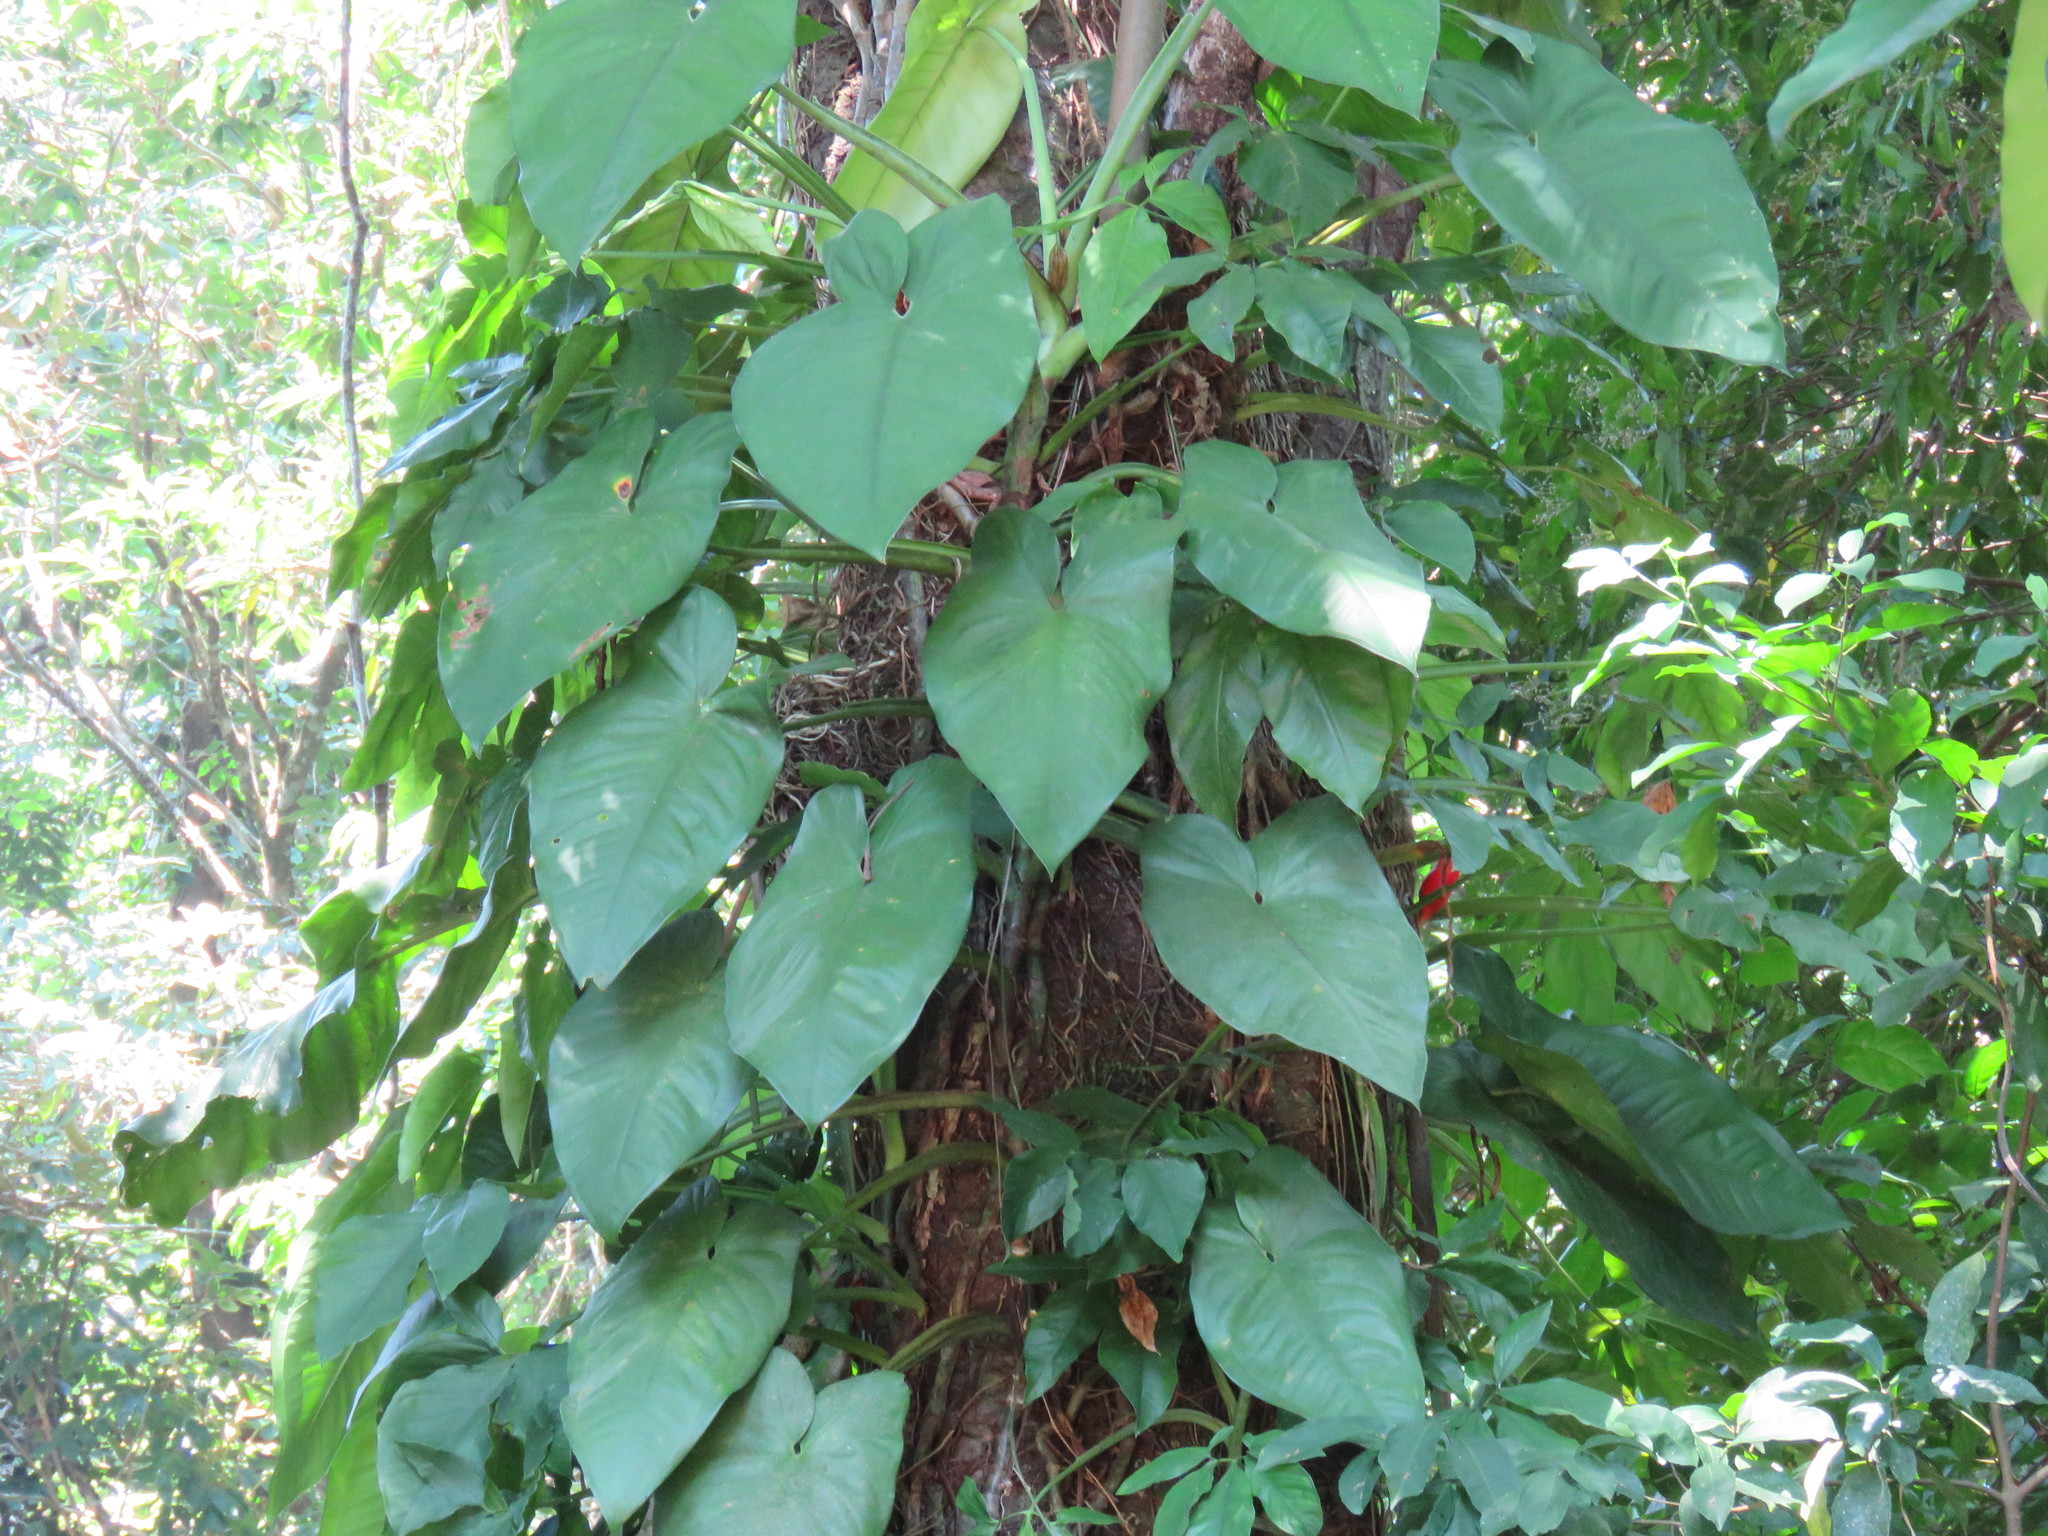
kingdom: Plantae
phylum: Tracheophyta
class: Liliopsida
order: Alismatales
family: Araceae
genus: Syngonium
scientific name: Syngonium chiapense
